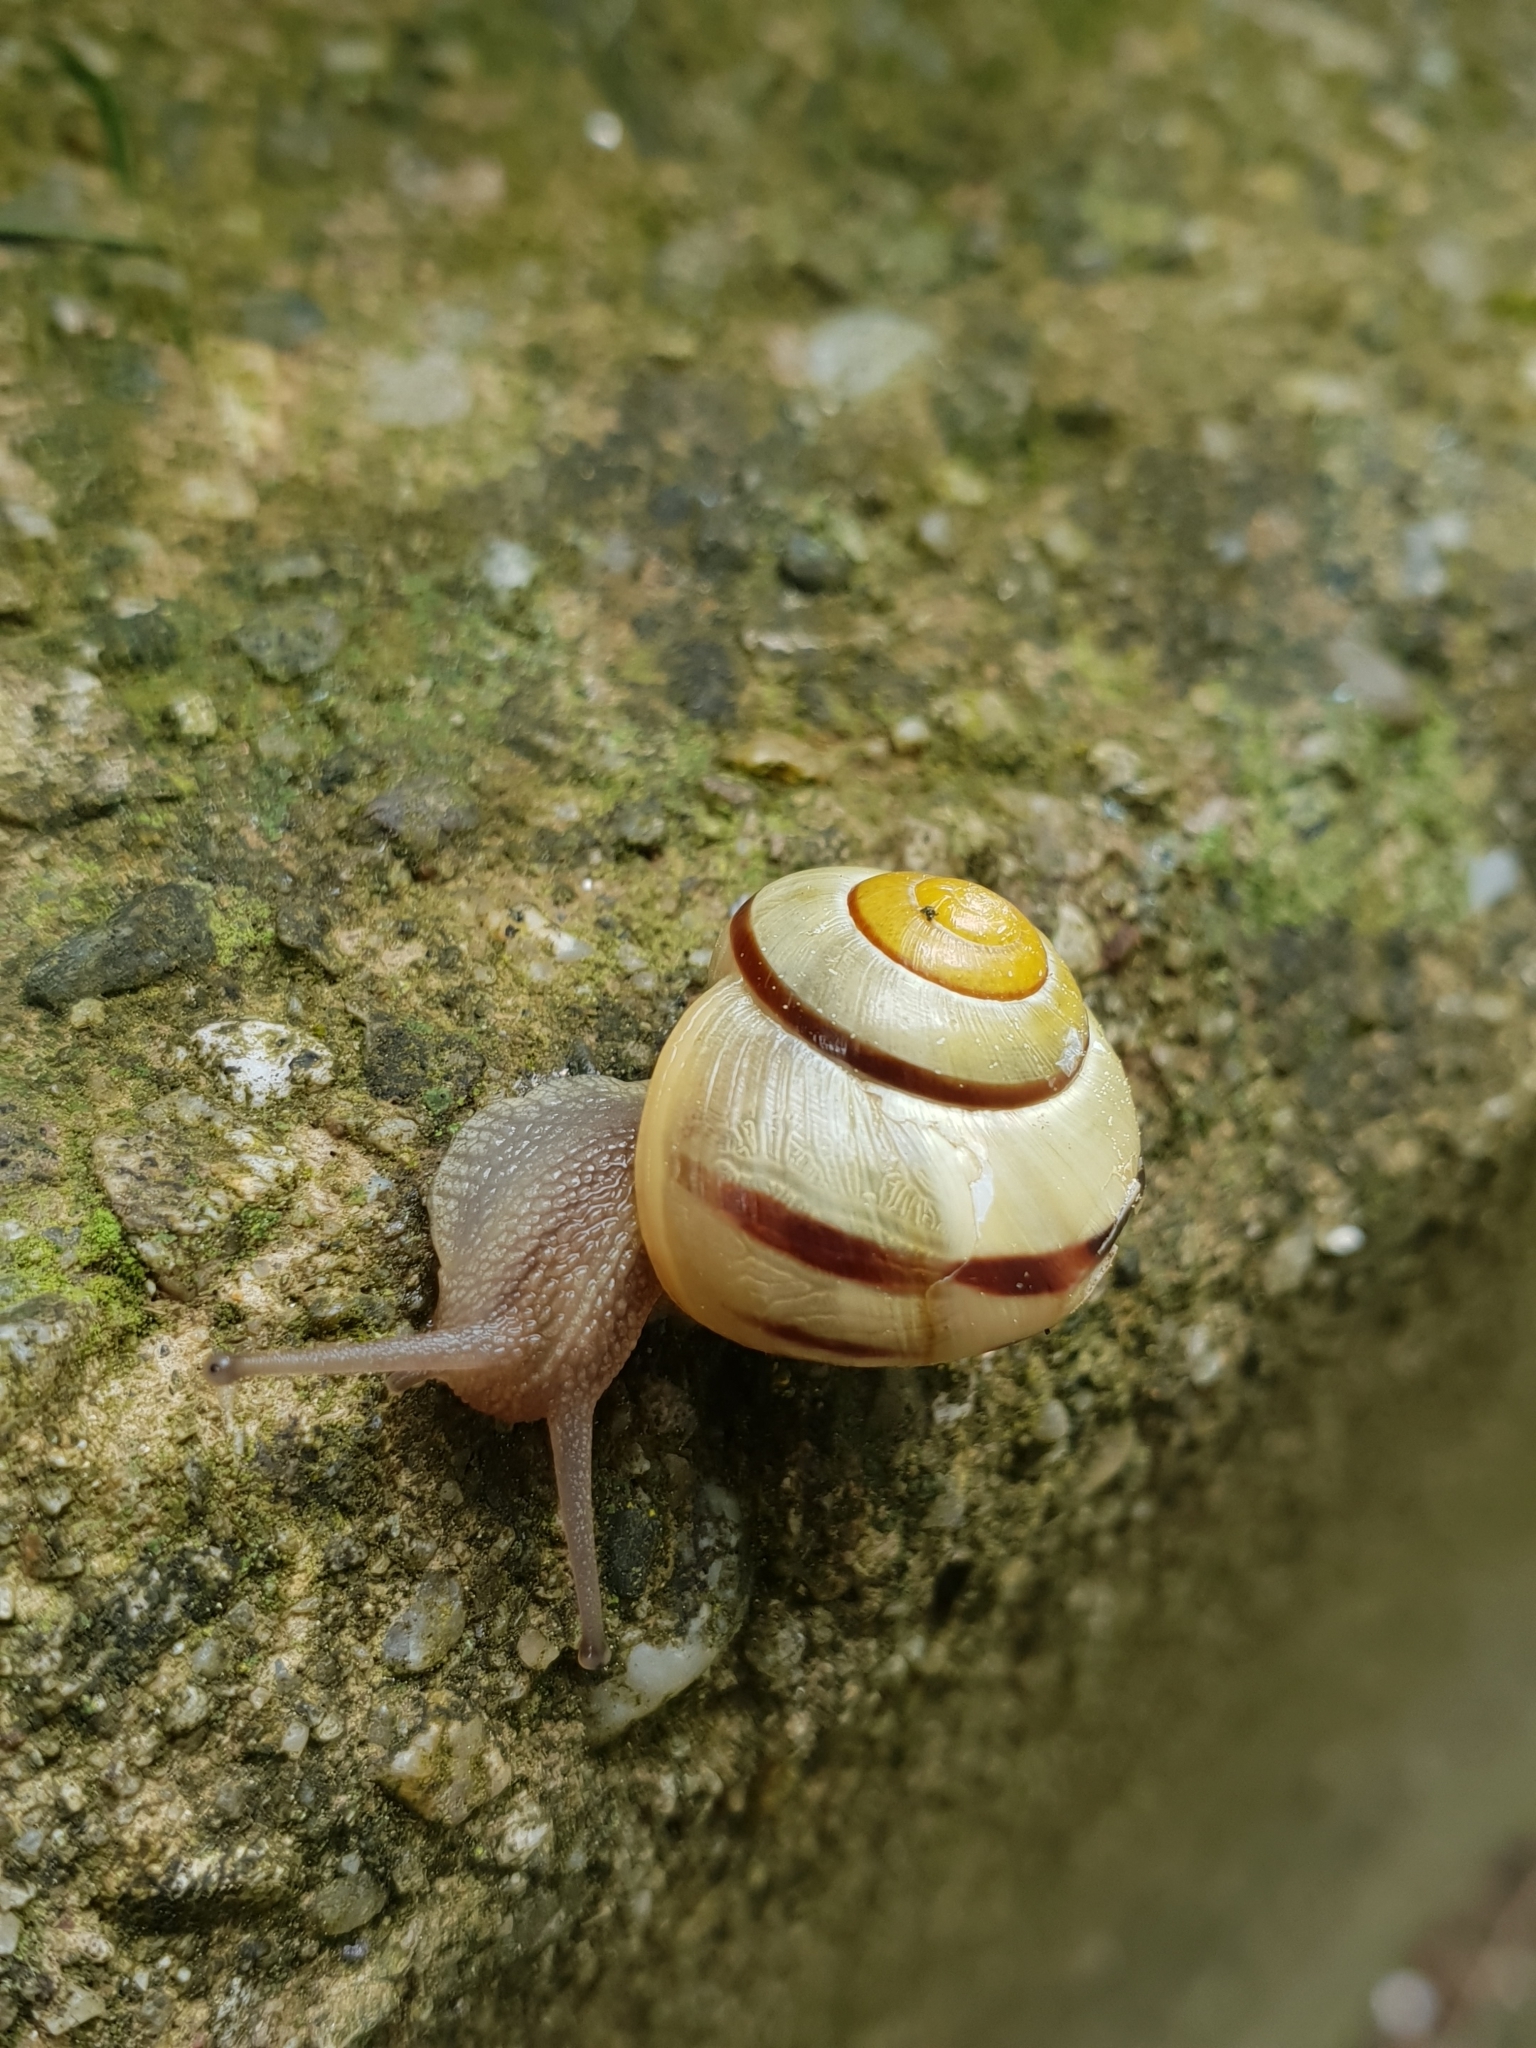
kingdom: Animalia
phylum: Mollusca
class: Gastropoda
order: Stylommatophora
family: Helicidae
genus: Cepaea
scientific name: Cepaea
